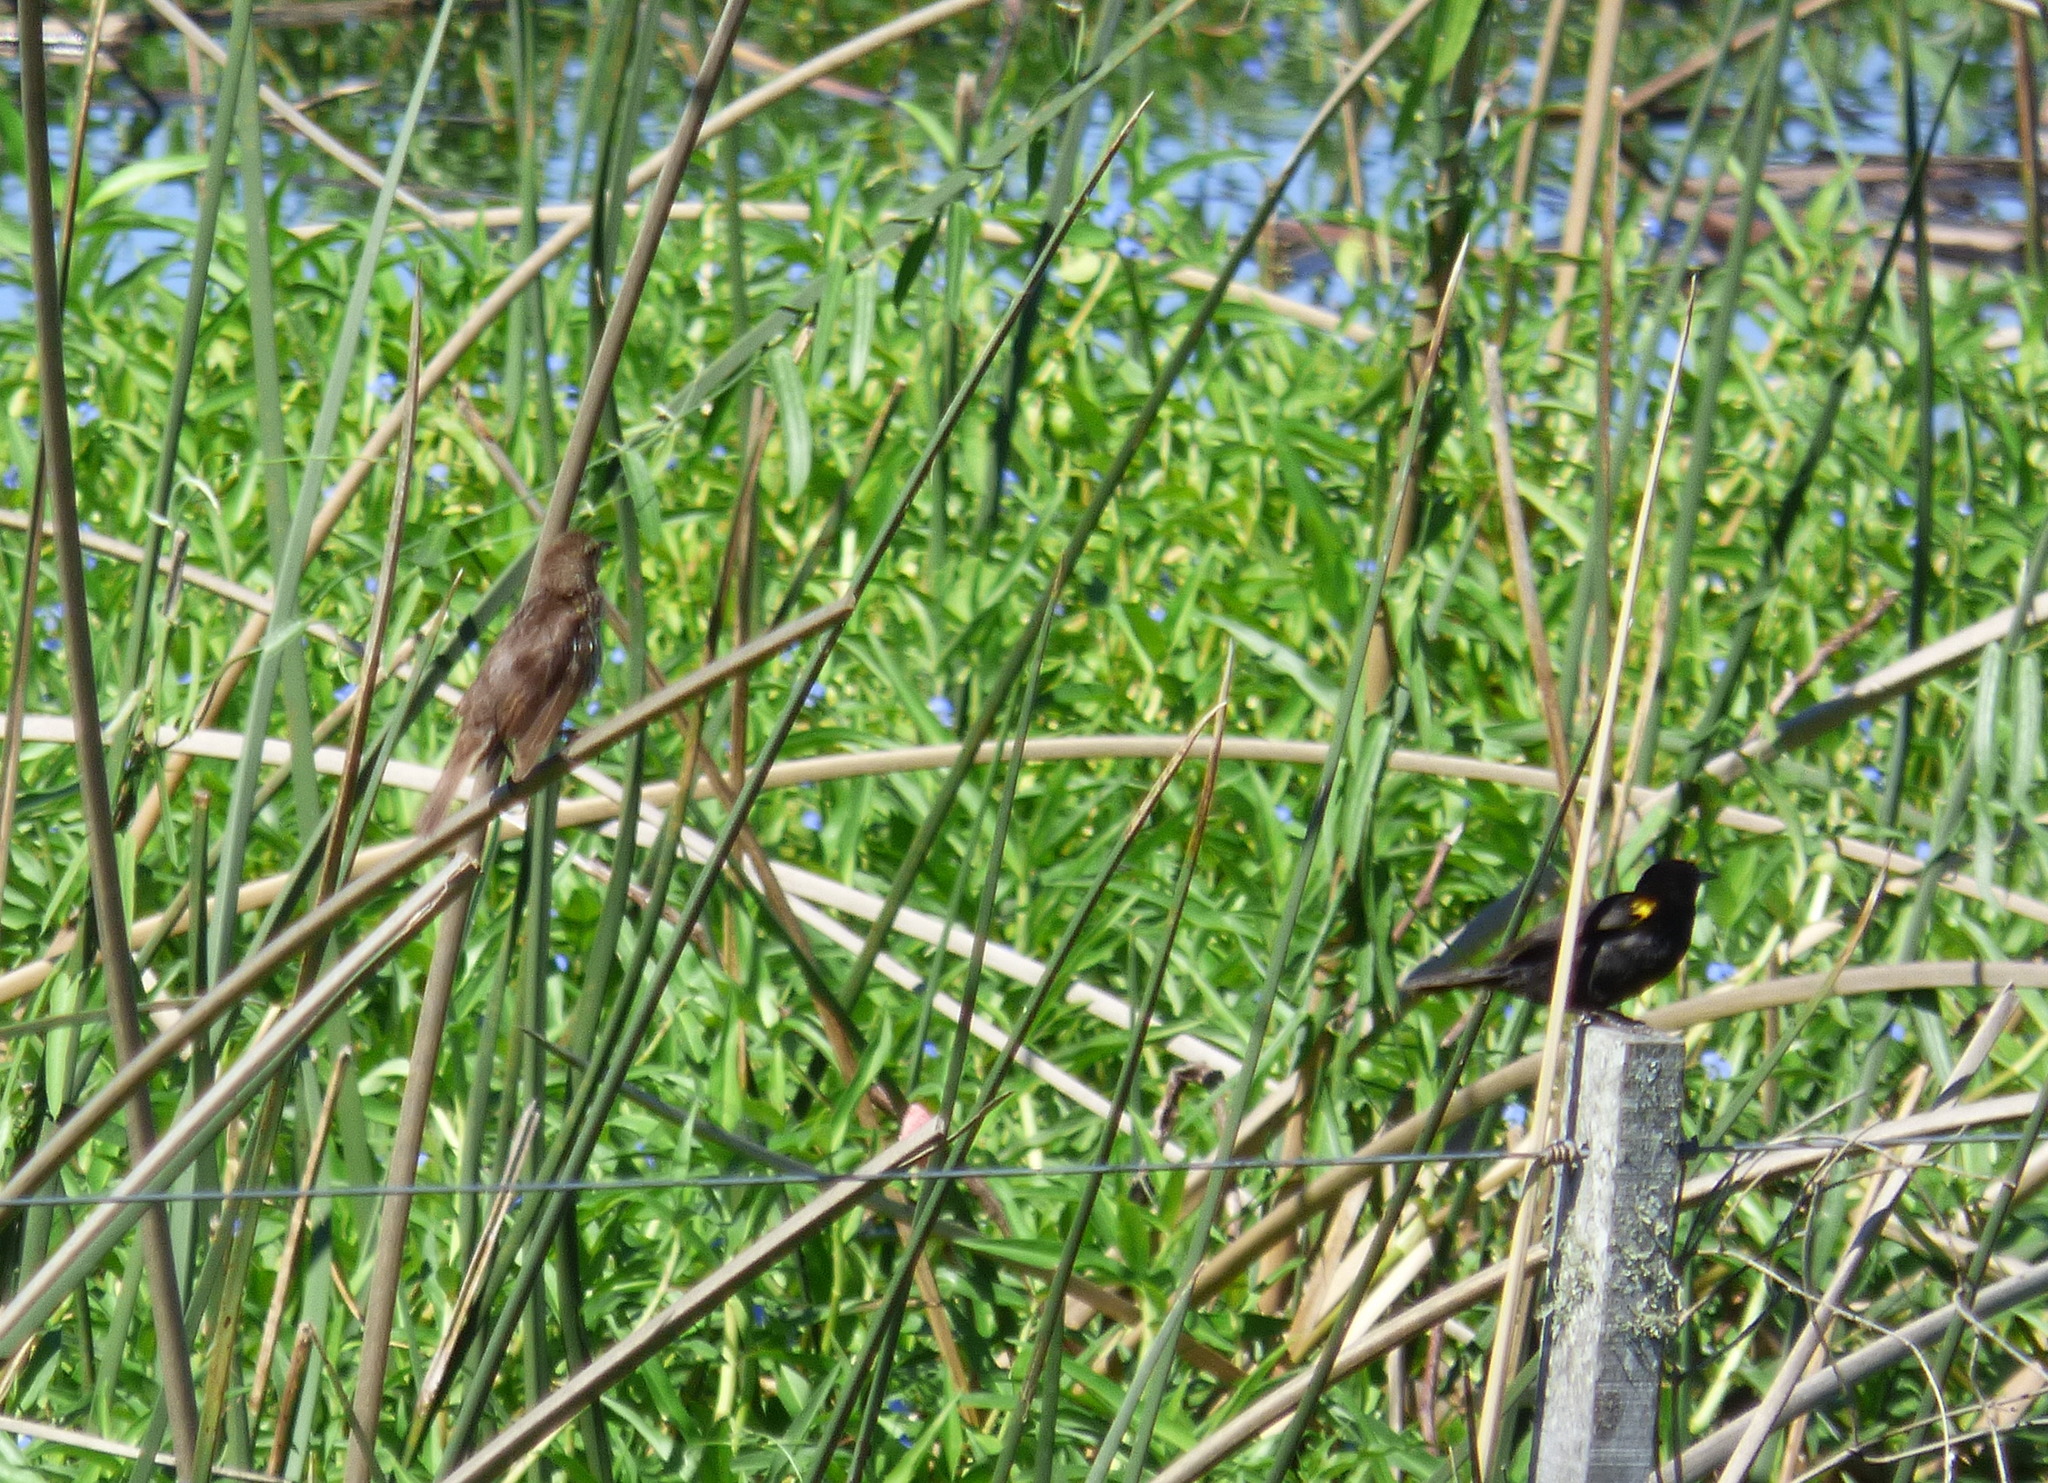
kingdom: Animalia
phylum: Chordata
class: Aves
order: Passeriformes
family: Icteridae
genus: Agelasticus
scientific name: Agelasticus thilius
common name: Yellow-winged blackbird
